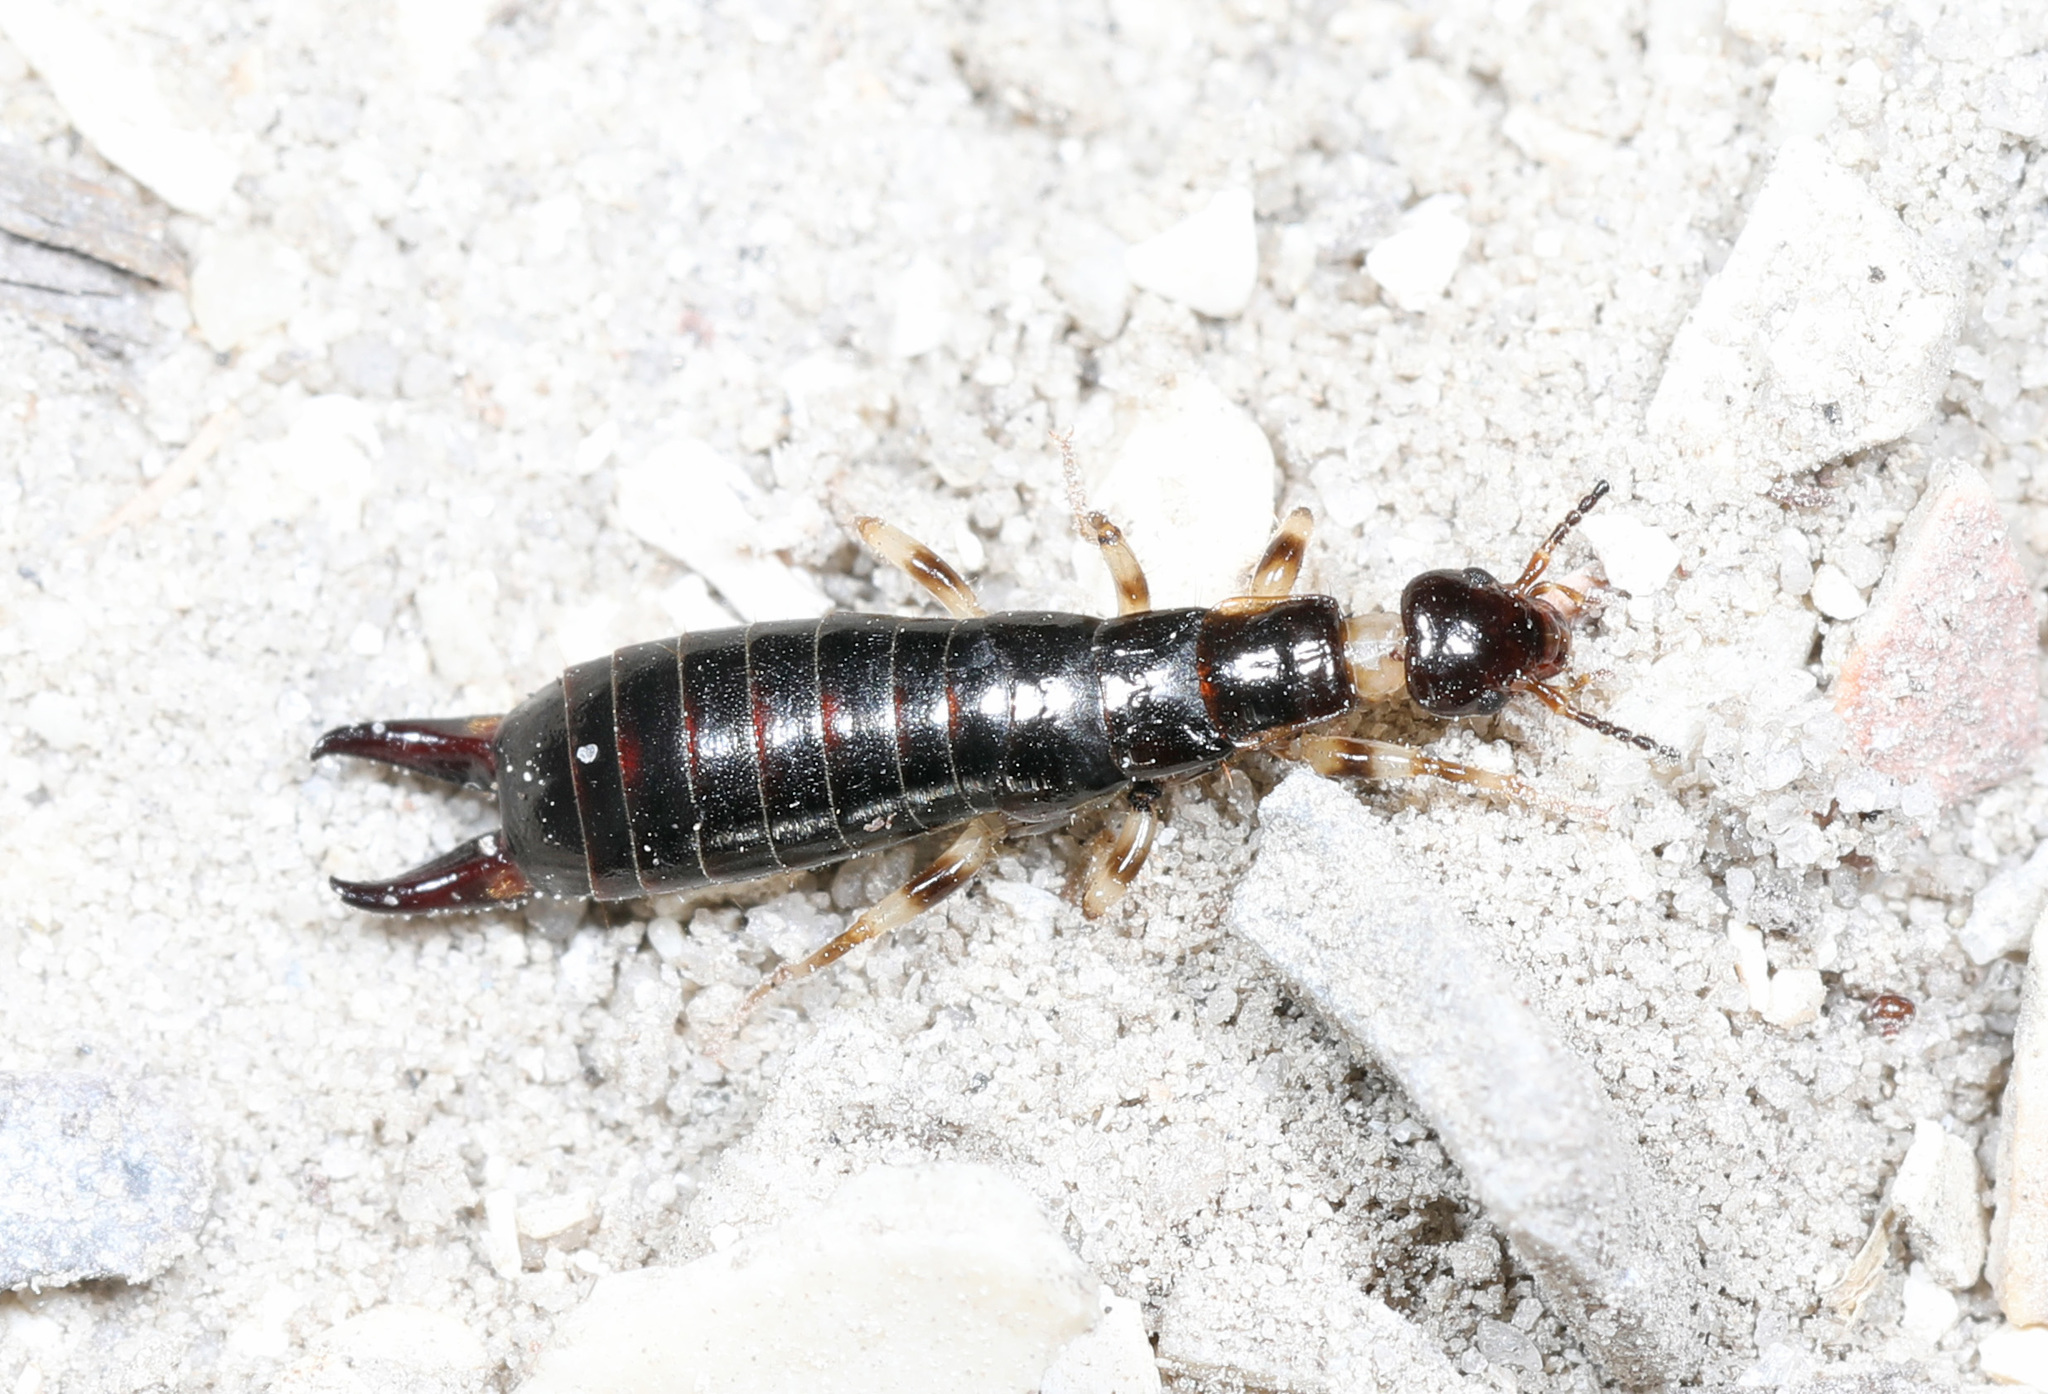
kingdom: Animalia
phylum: Arthropoda
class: Insecta
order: Dermaptera
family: Anisolabididae
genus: Euborellia
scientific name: Euborellia annulipes
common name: Ringlegged earwig
